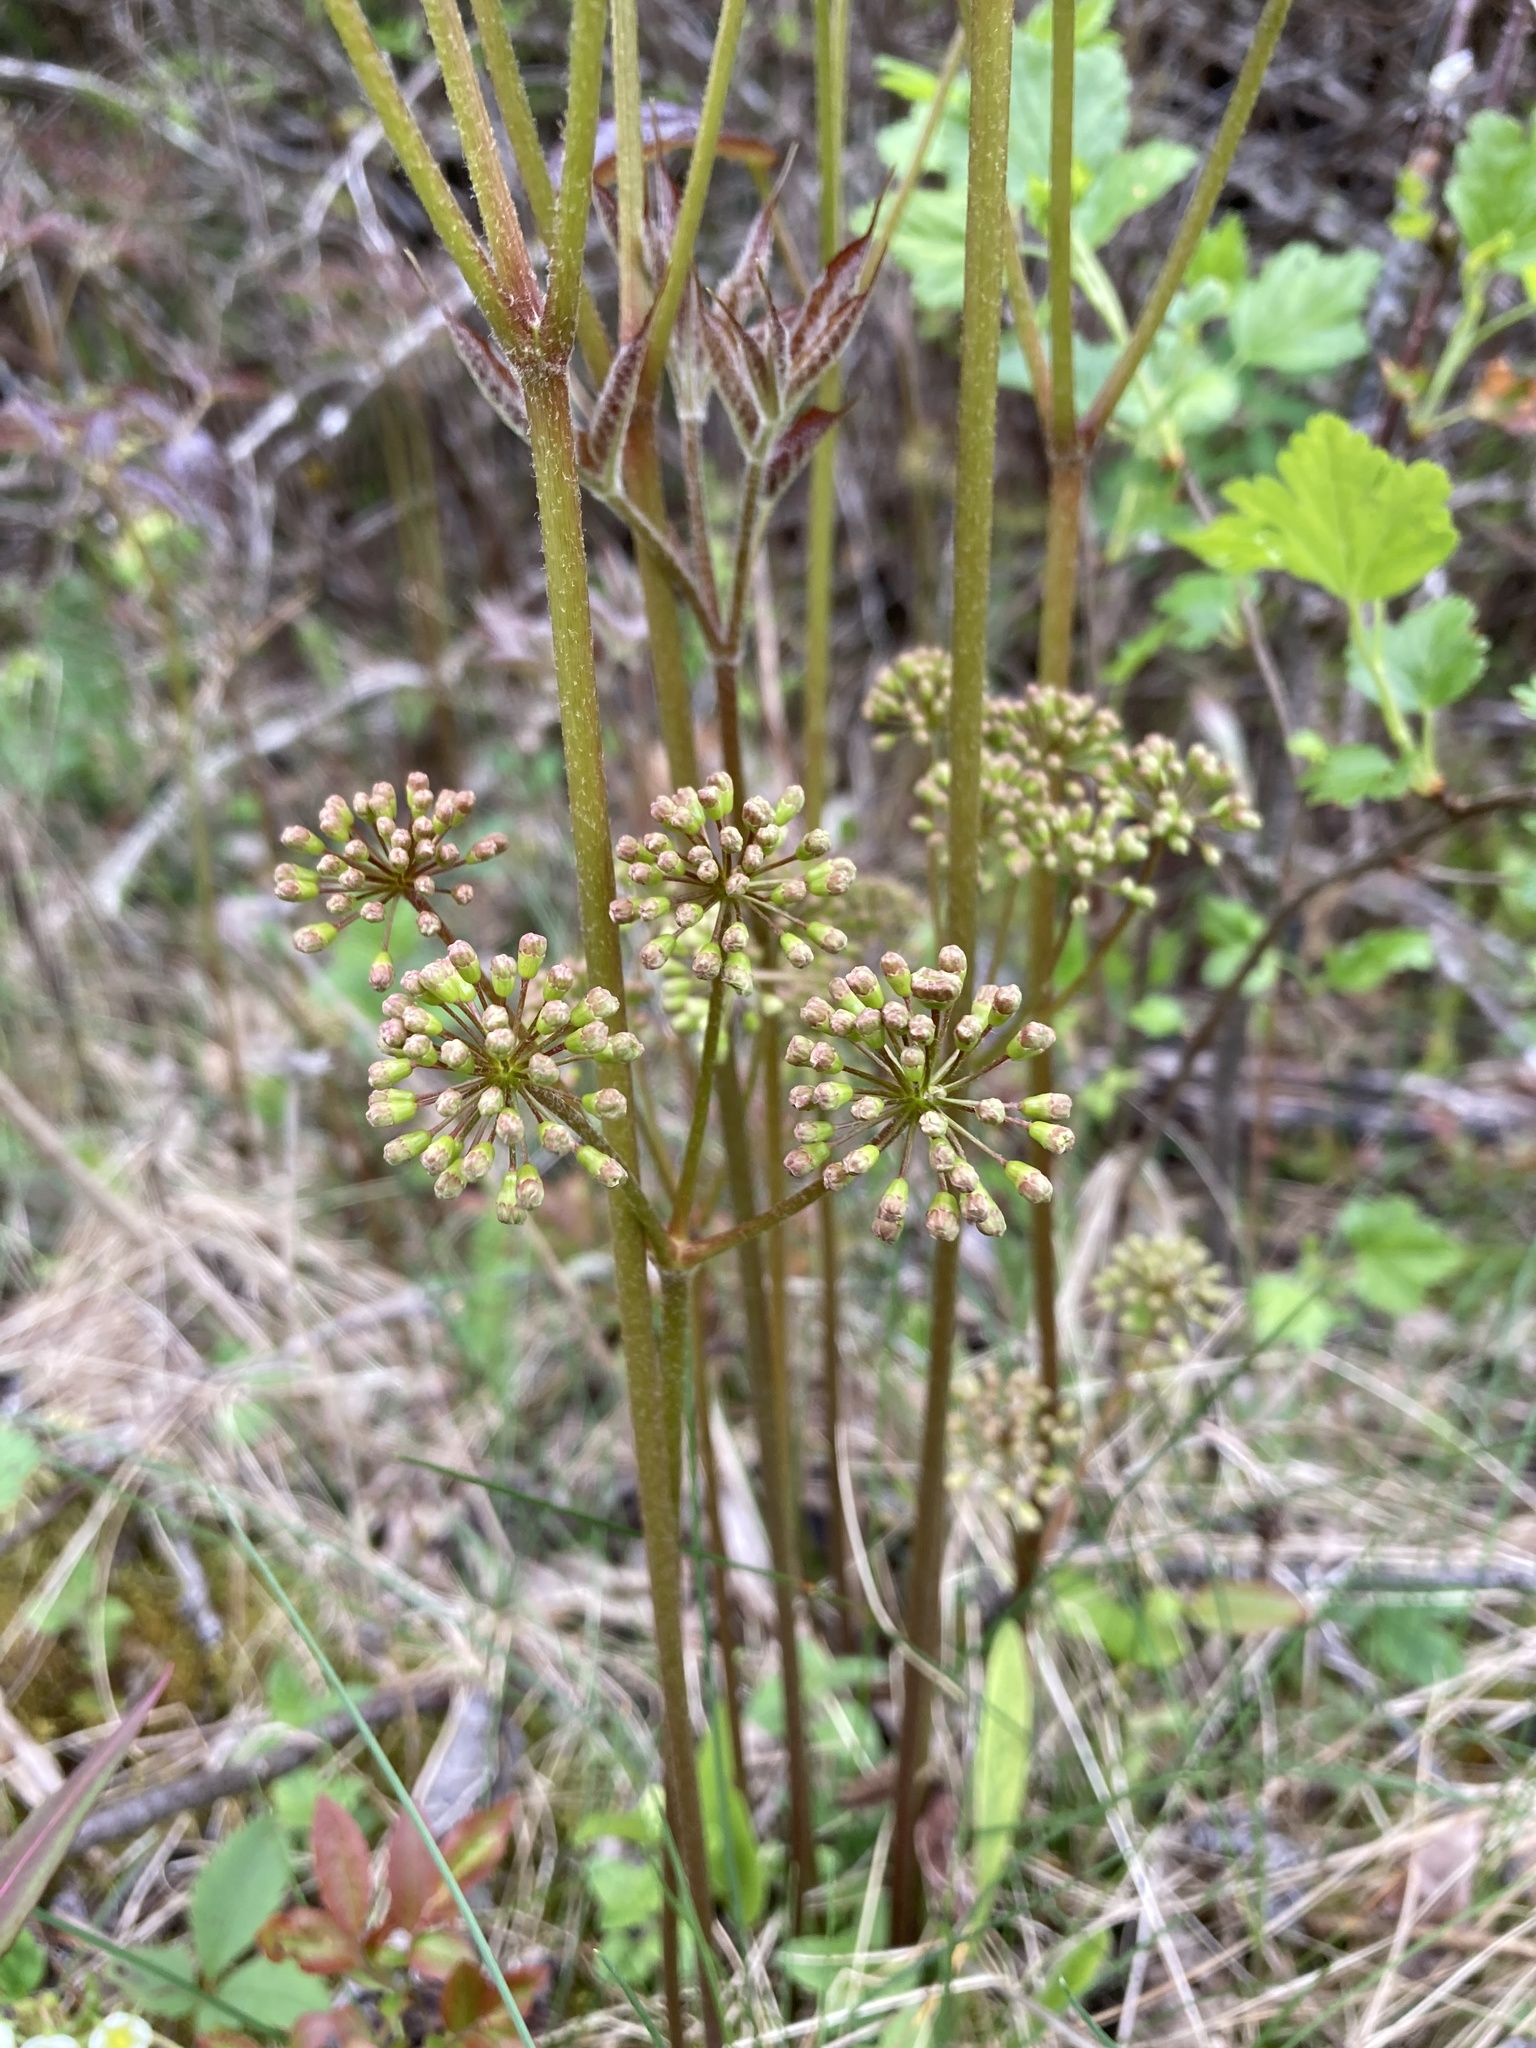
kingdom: Plantae
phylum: Tracheophyta
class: Magnoliopsida
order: Apiales
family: Araliaceae
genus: Aralia
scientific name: Aralia nudicaulis
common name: Wild sarsaparilla
